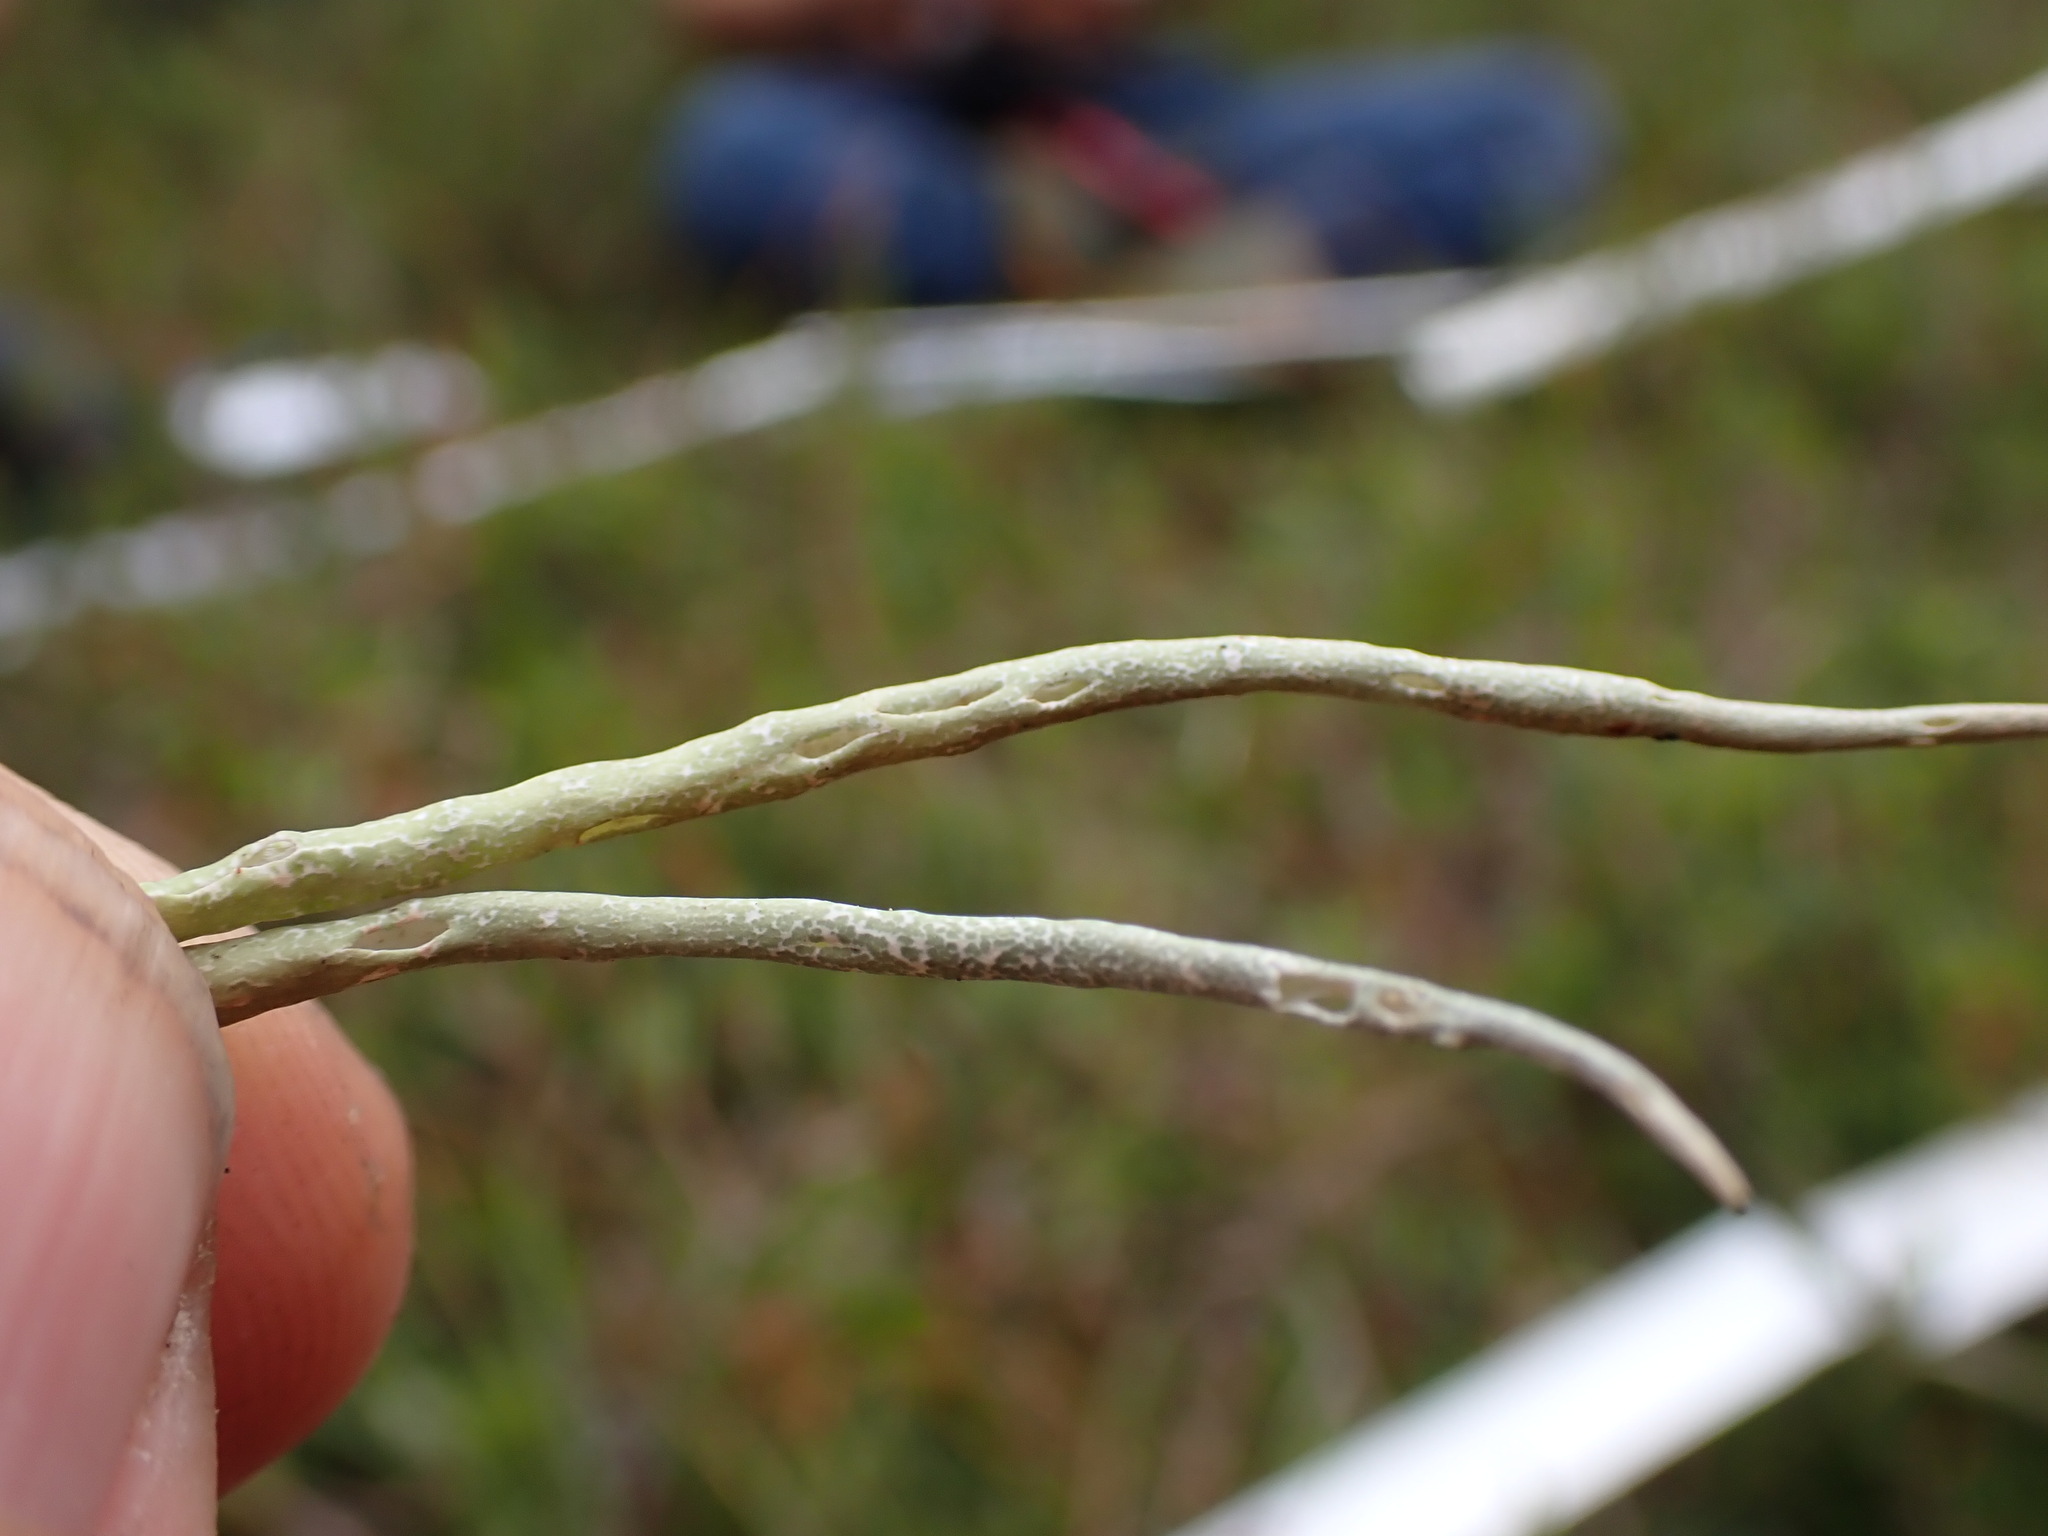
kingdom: Fungi
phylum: Ascomycota
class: Lecanoromycetes
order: Lecanorales
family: Cladoniaceae
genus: Cladonia
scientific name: Cladonia gracilis
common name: Smooth clad lichen
